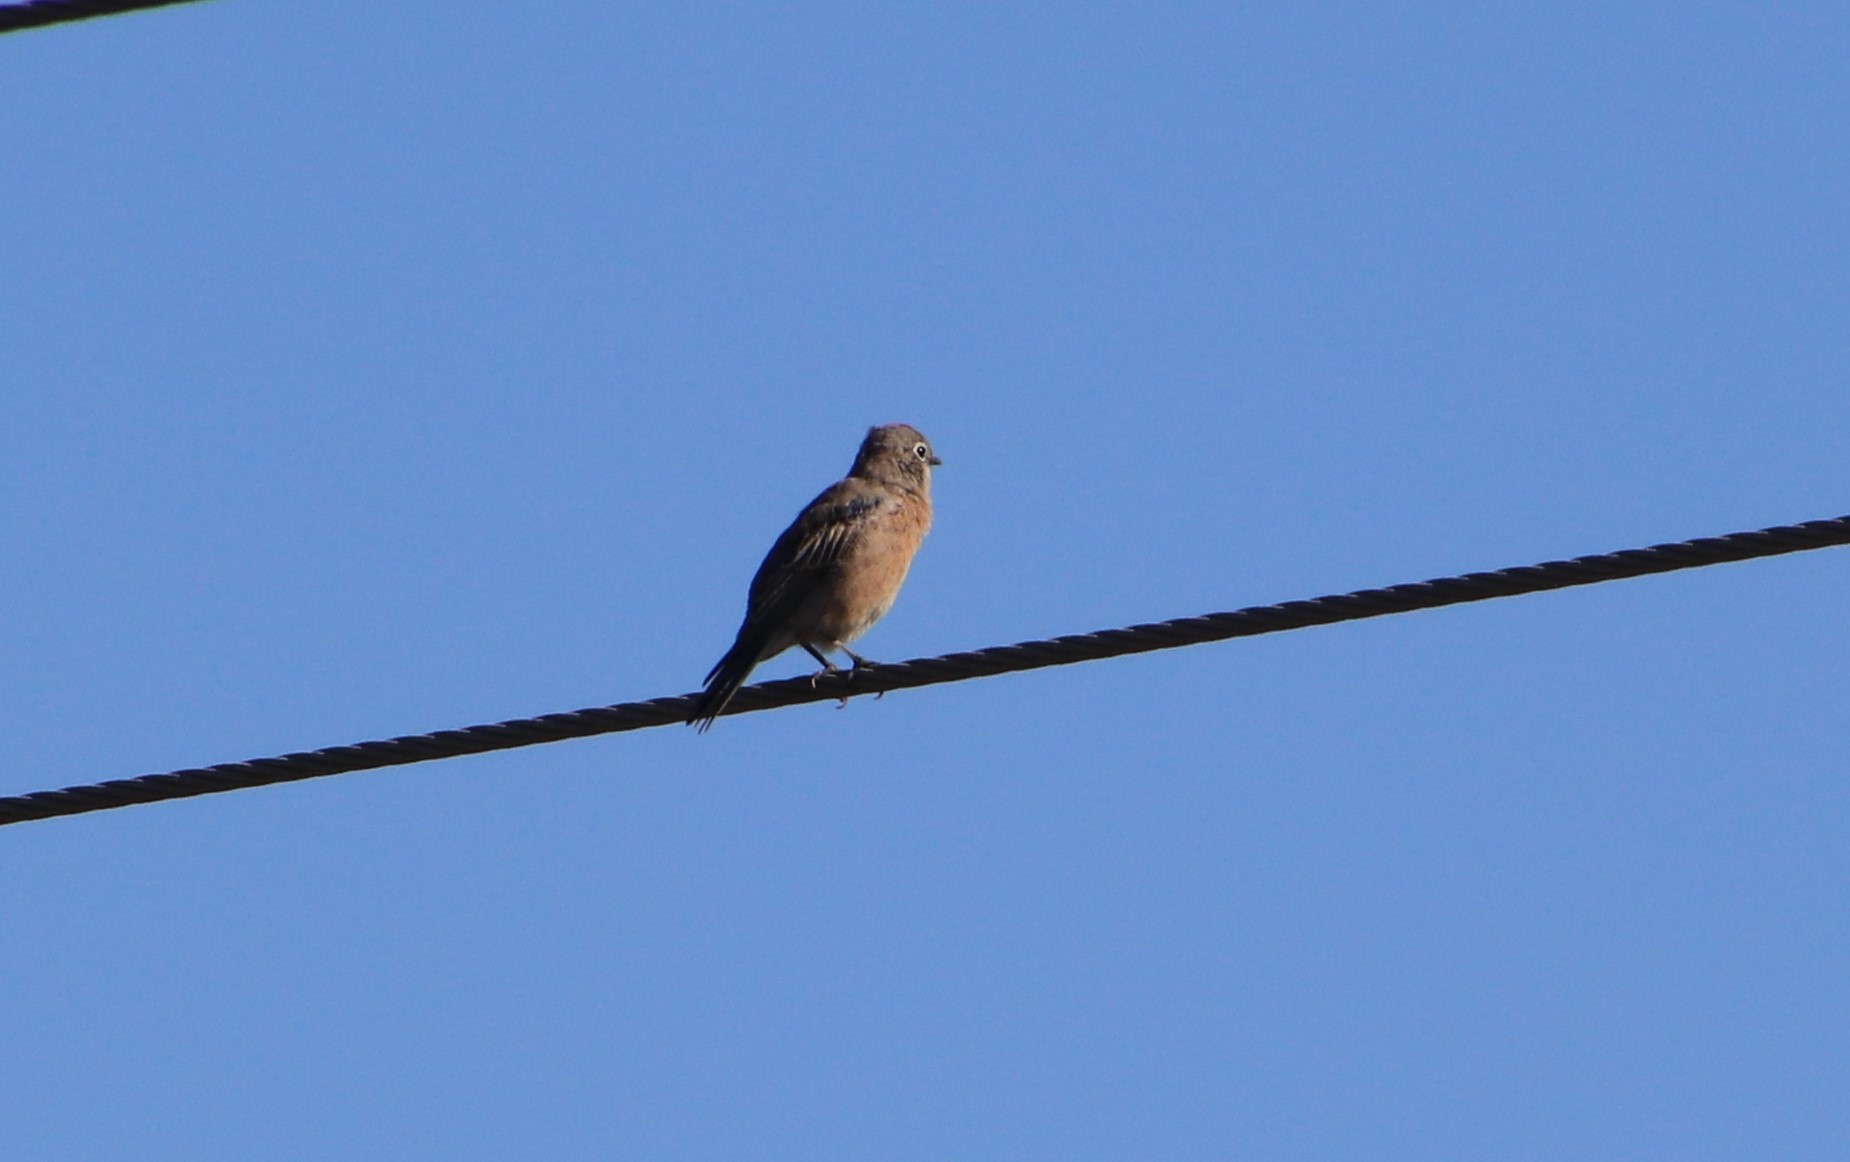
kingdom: Animalia
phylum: Chordata
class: Aves
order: Passeriformes
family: Turdidae
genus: Sialia
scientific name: Sialia mexicana
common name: Western bluebird
